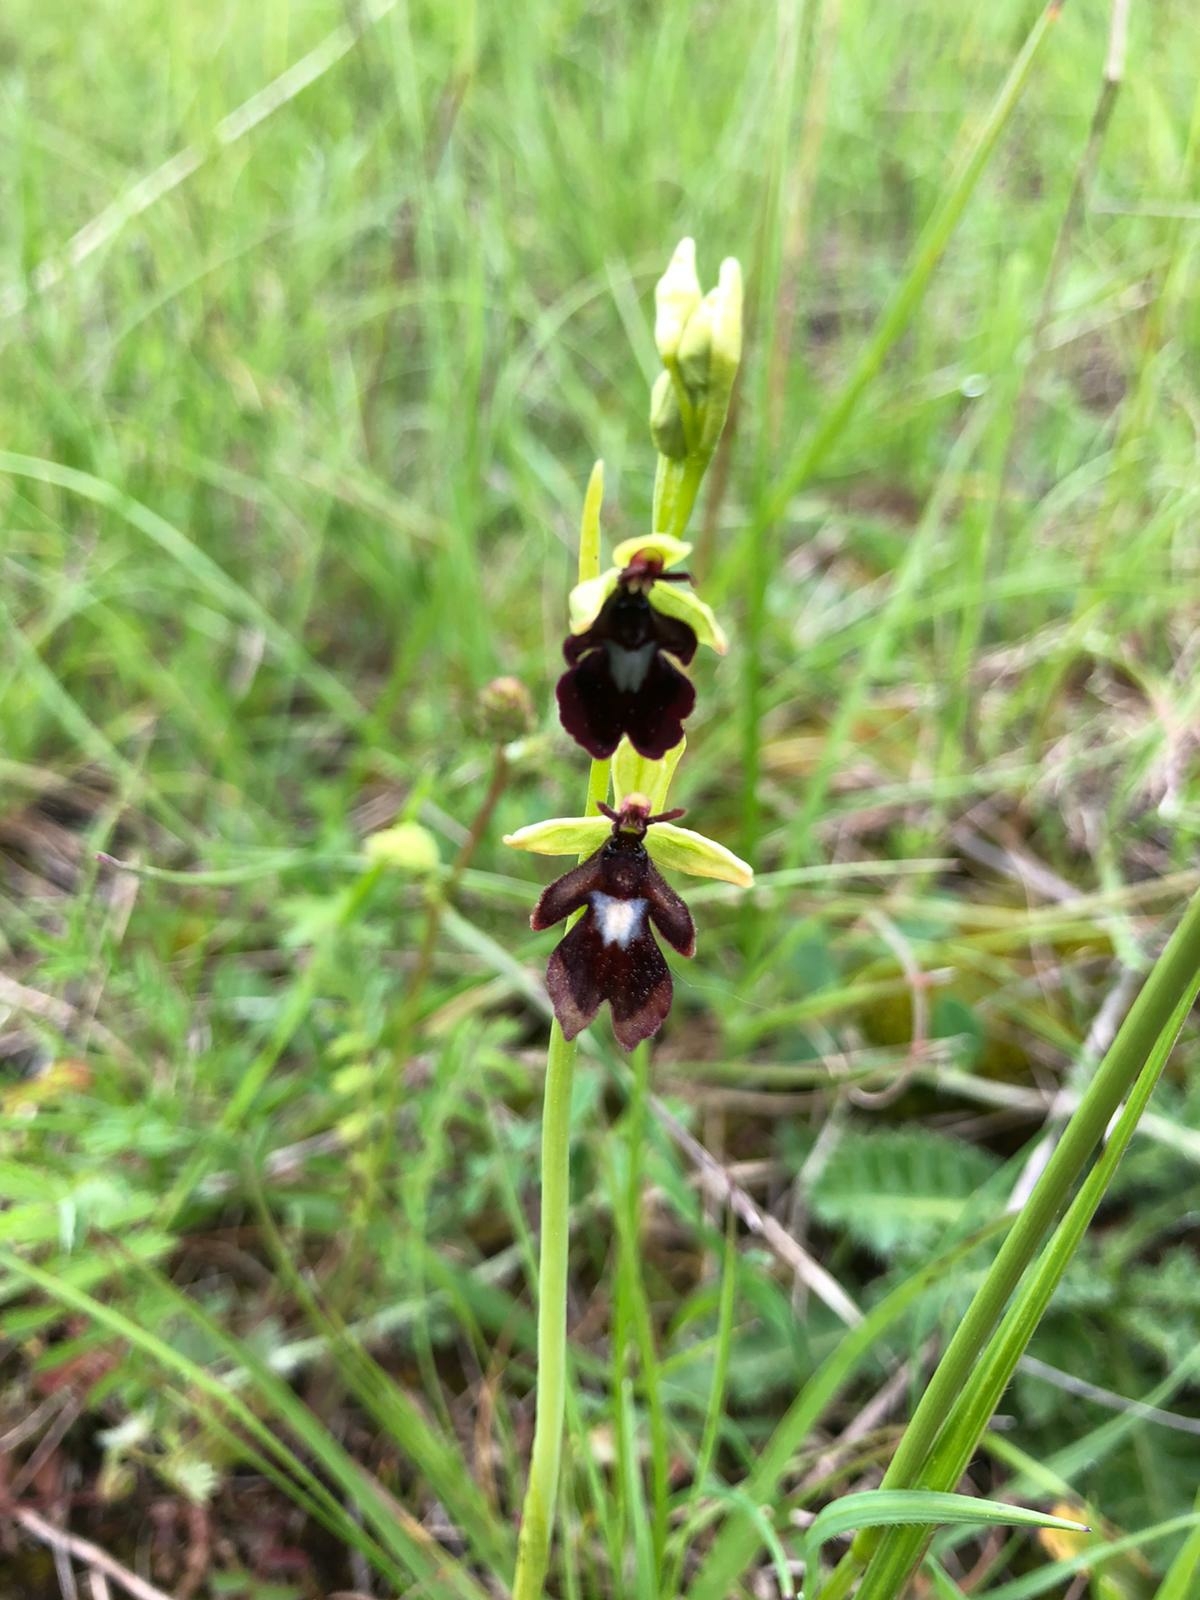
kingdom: Plantae
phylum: Tracheophyta
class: Liliopsida
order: Asparagales
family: Orchidaceae
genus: Ophrys
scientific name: Ophrys insectifera
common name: Fly orchid
